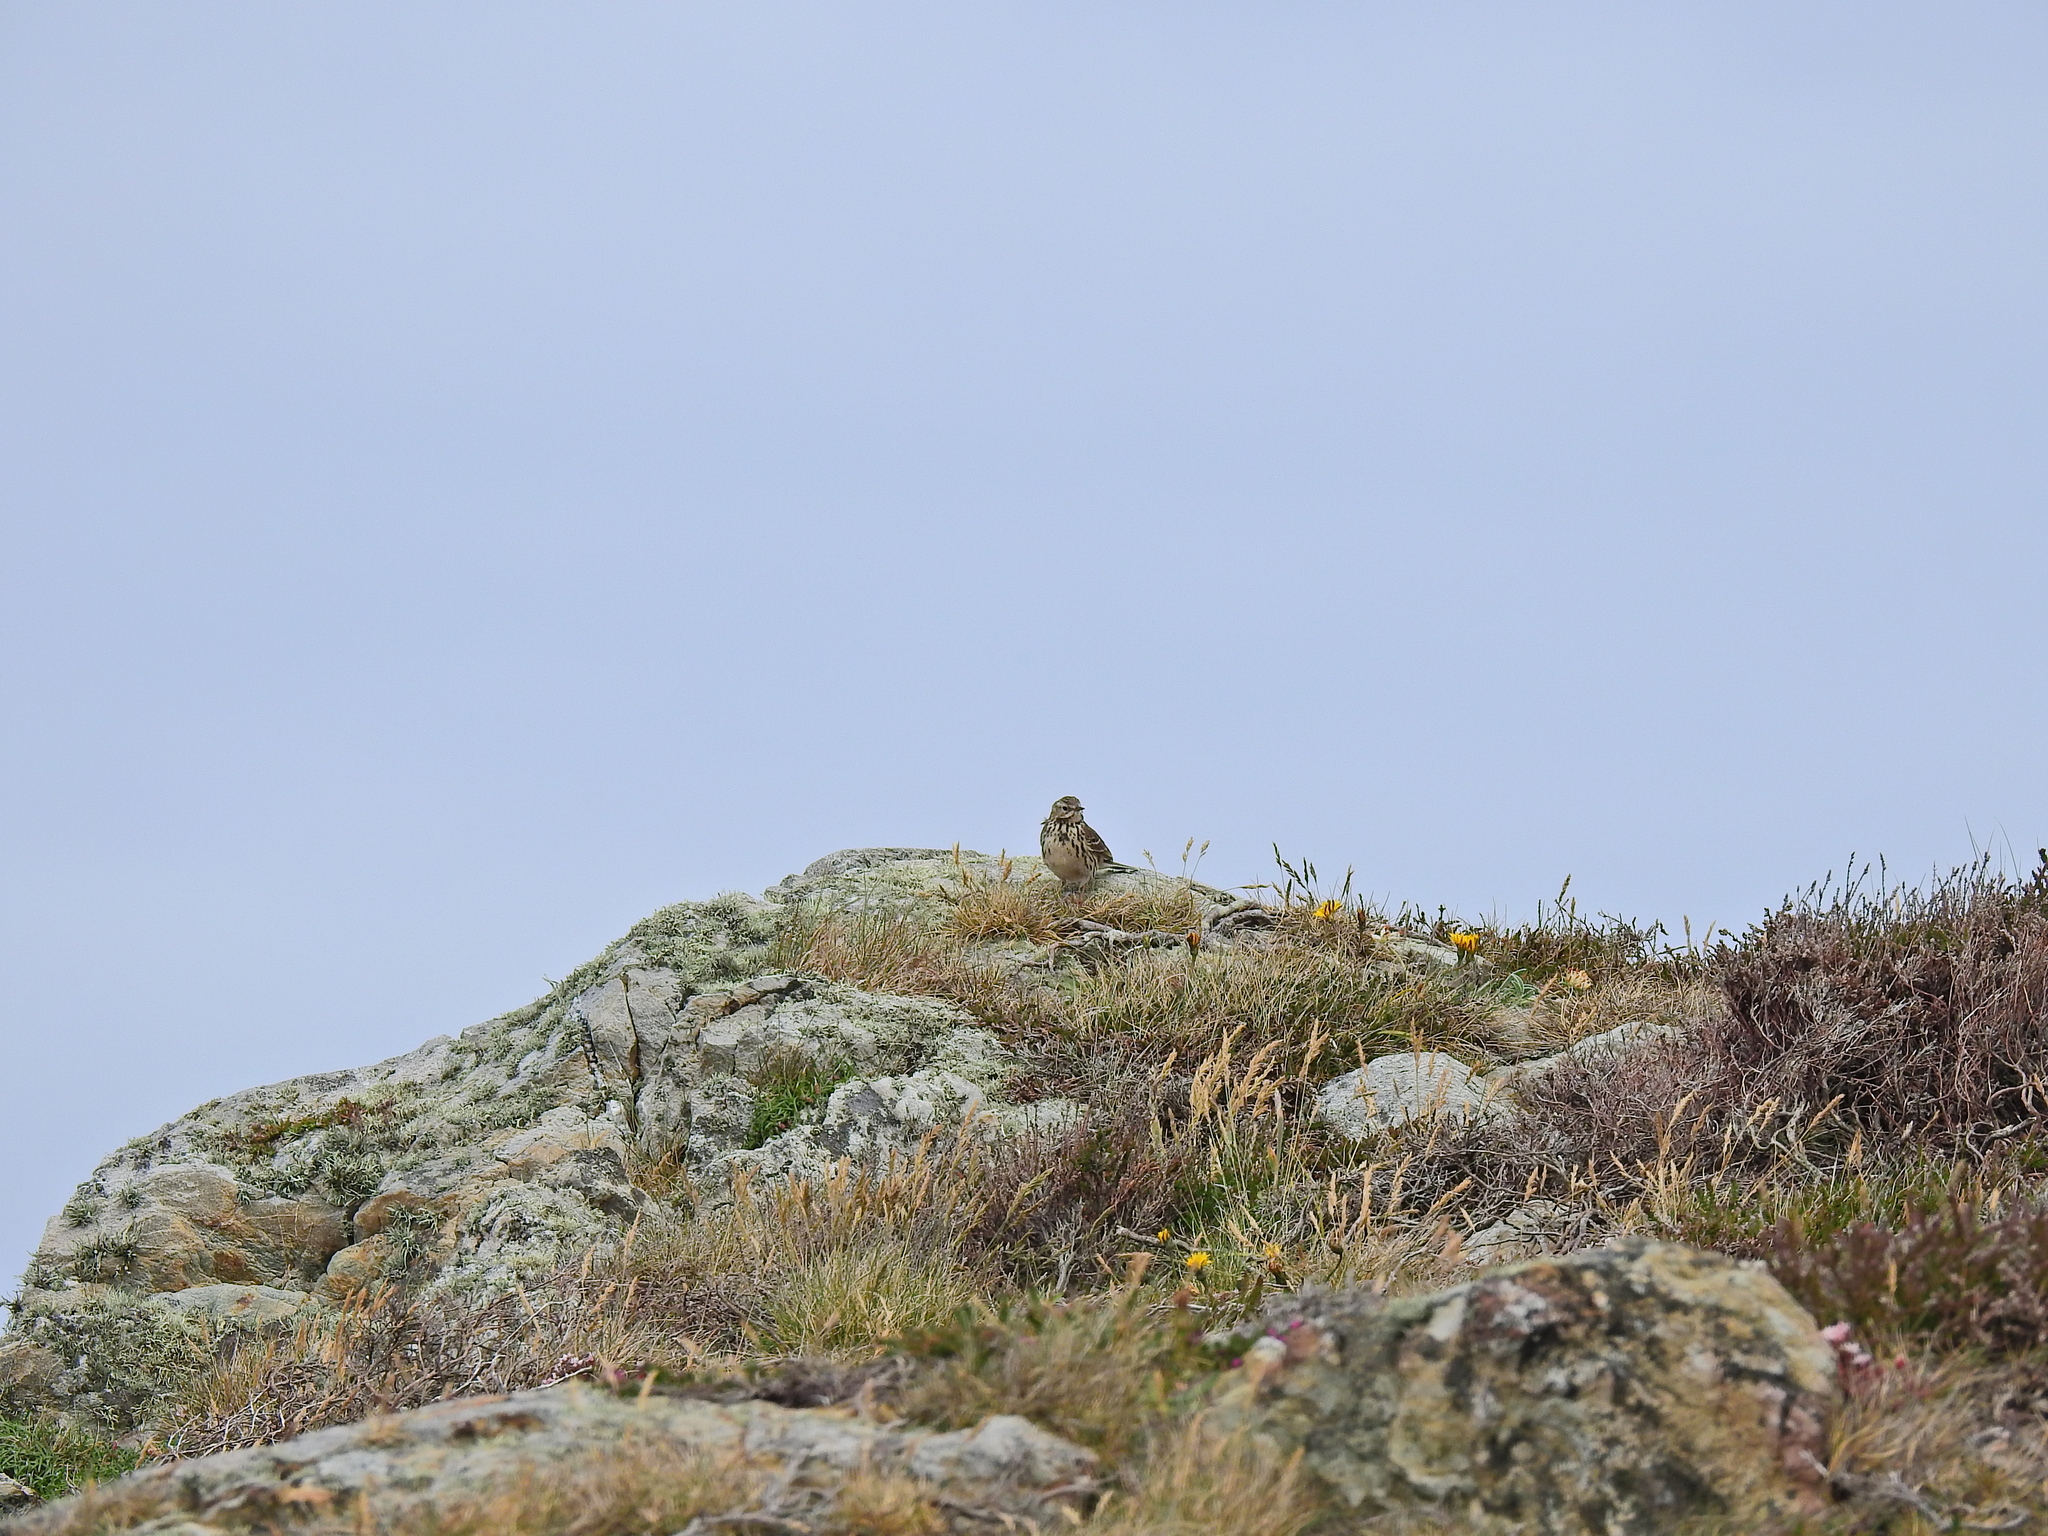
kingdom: Animalia
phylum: Chordata
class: Aves
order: Passeriformes
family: Motacillidae
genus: Anthus
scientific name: Anthus pratensis
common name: Meadow pipit
